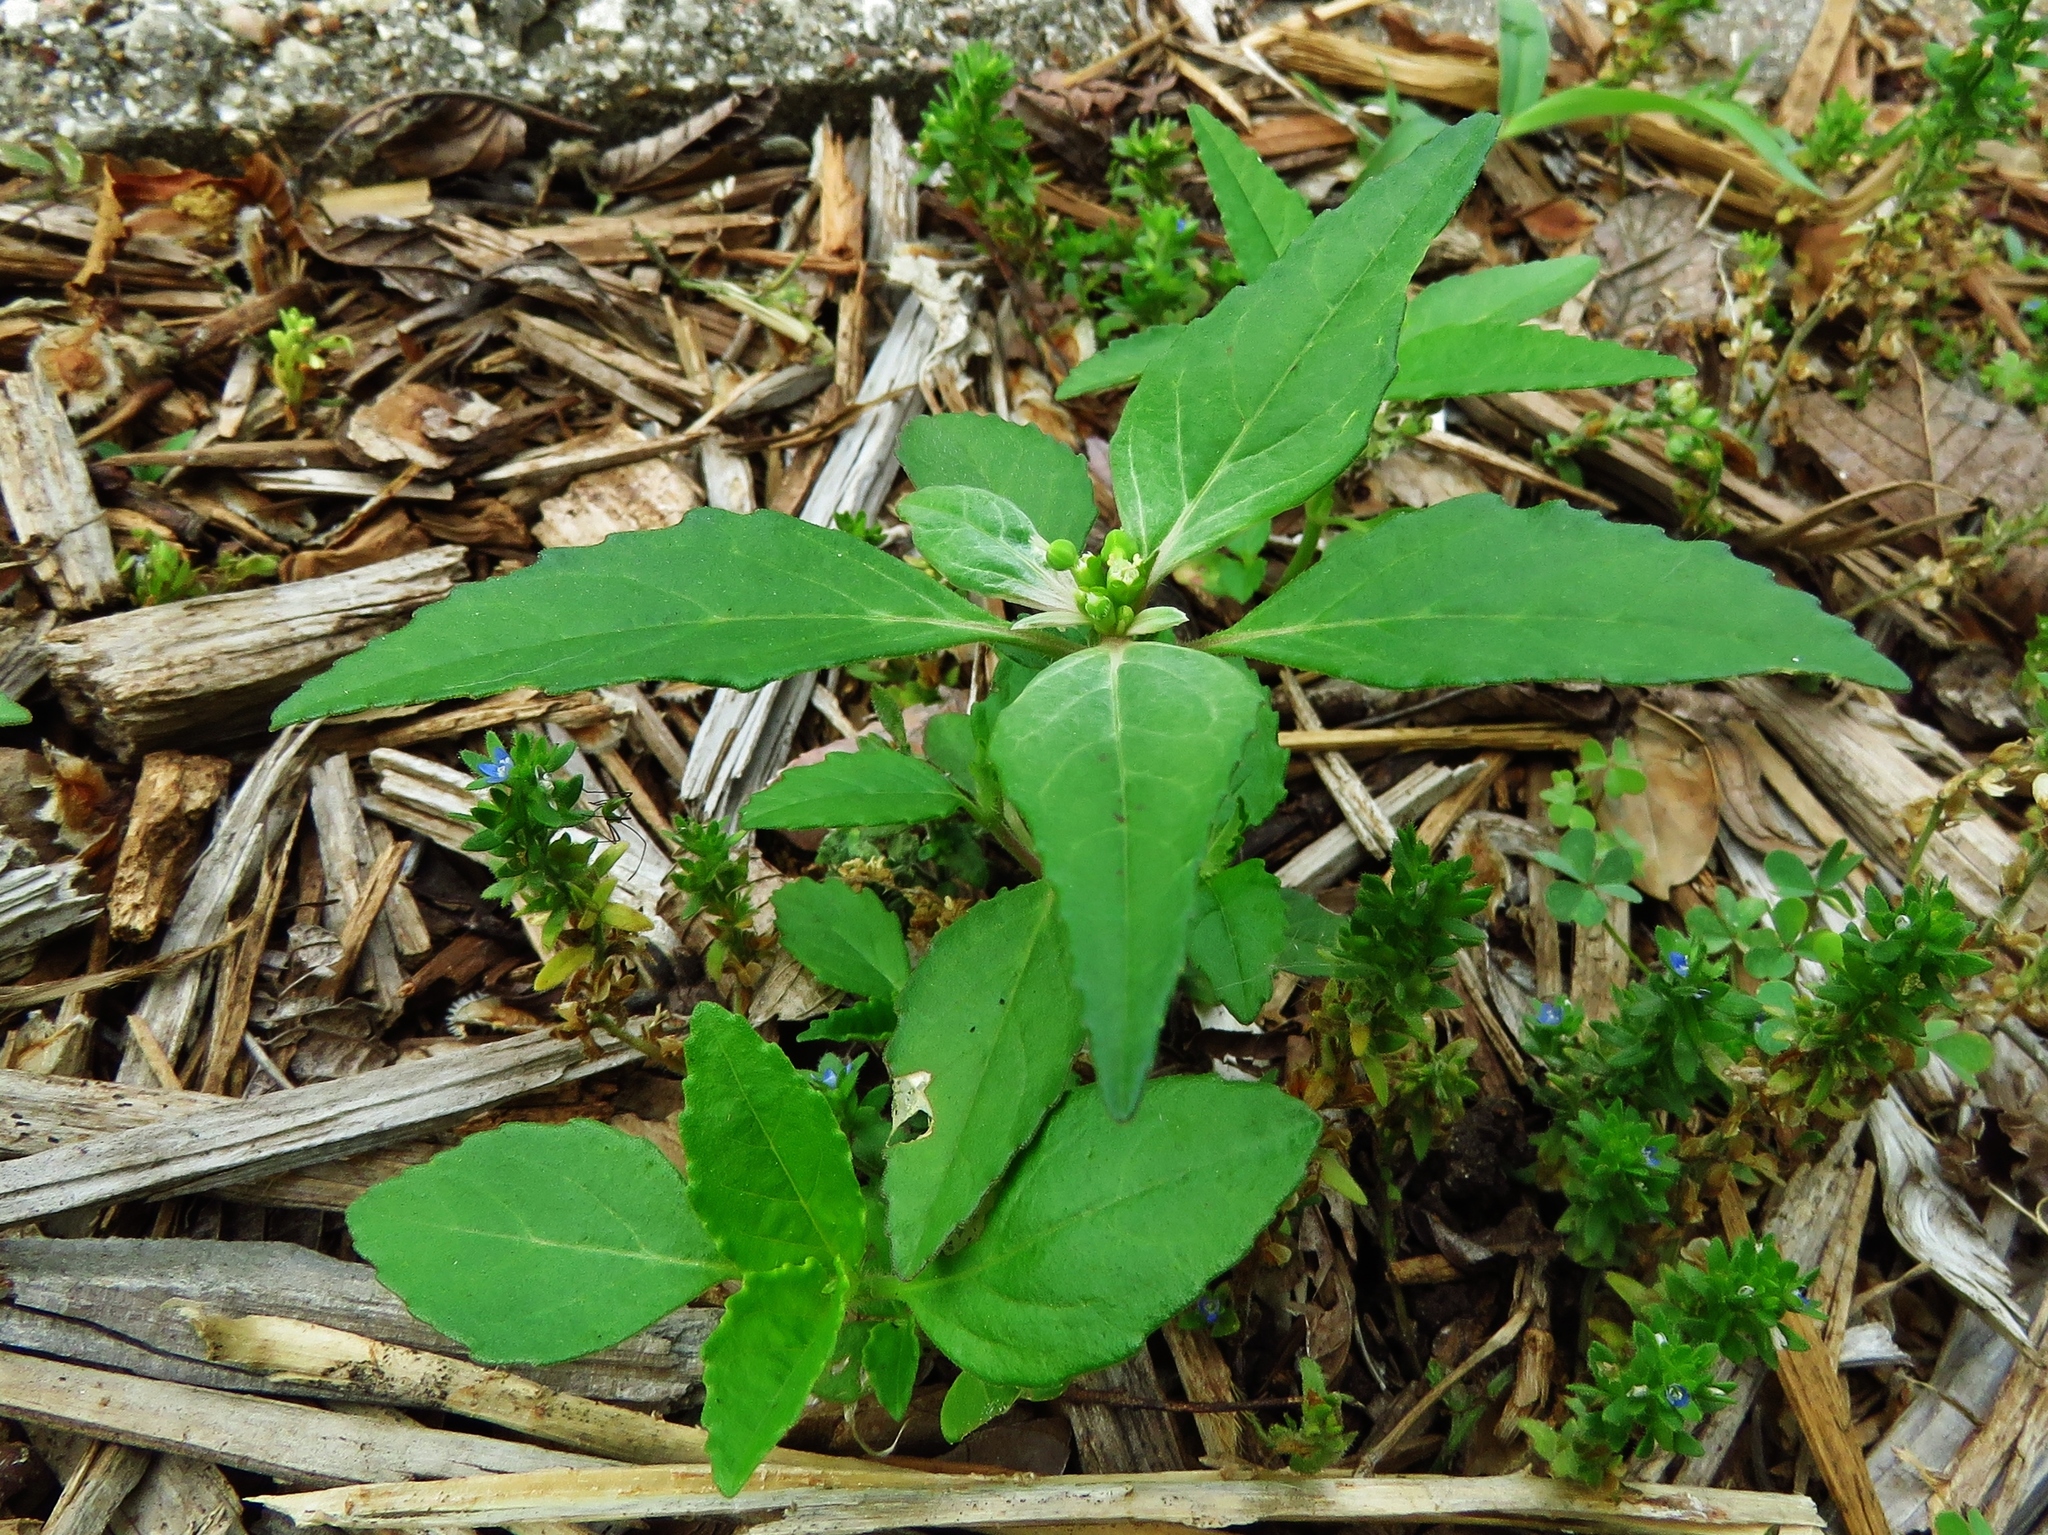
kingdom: Plantae
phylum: Tracheophyta
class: Magnoliopsida
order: Malpighiales
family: Euphorbiaceae
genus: Euphorbia
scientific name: Euphorbia dentata
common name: Dentate spurge
